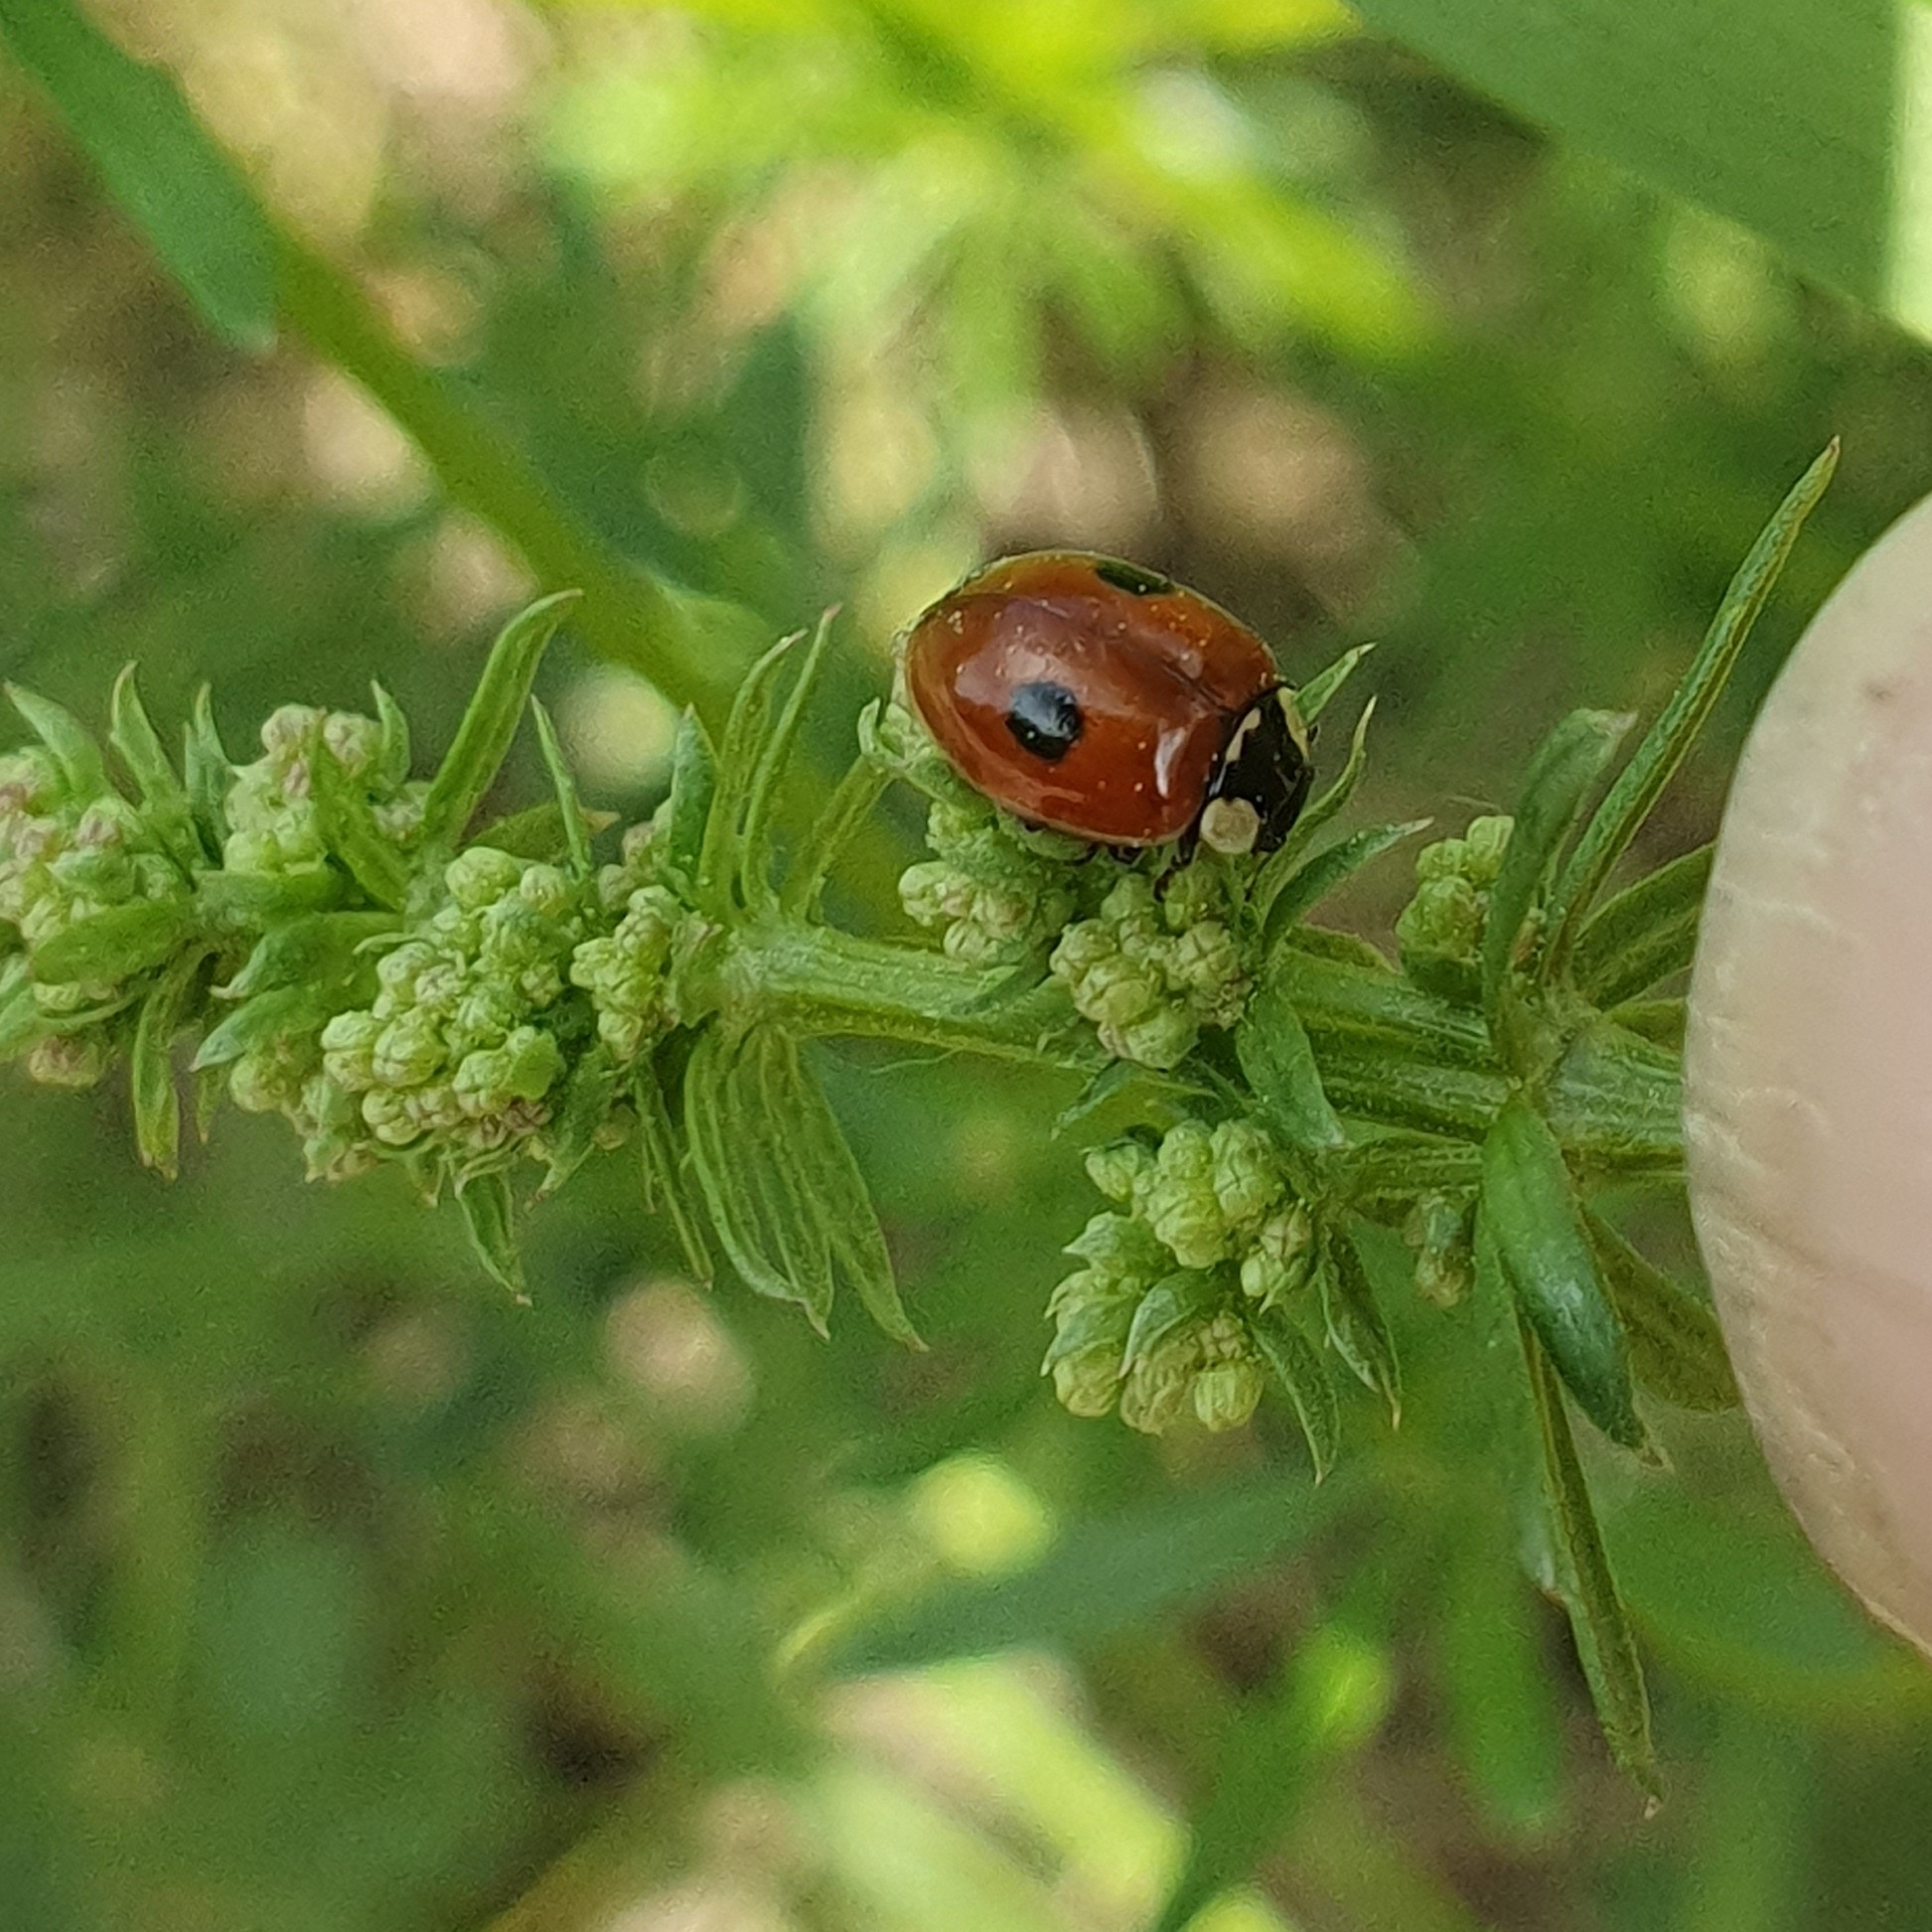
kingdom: Animalia
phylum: Arthropoda
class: Insecta
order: Coleoptera
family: Coccinellidae
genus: Adalia
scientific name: Adalia bipunctata
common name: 2-spot ladybird
